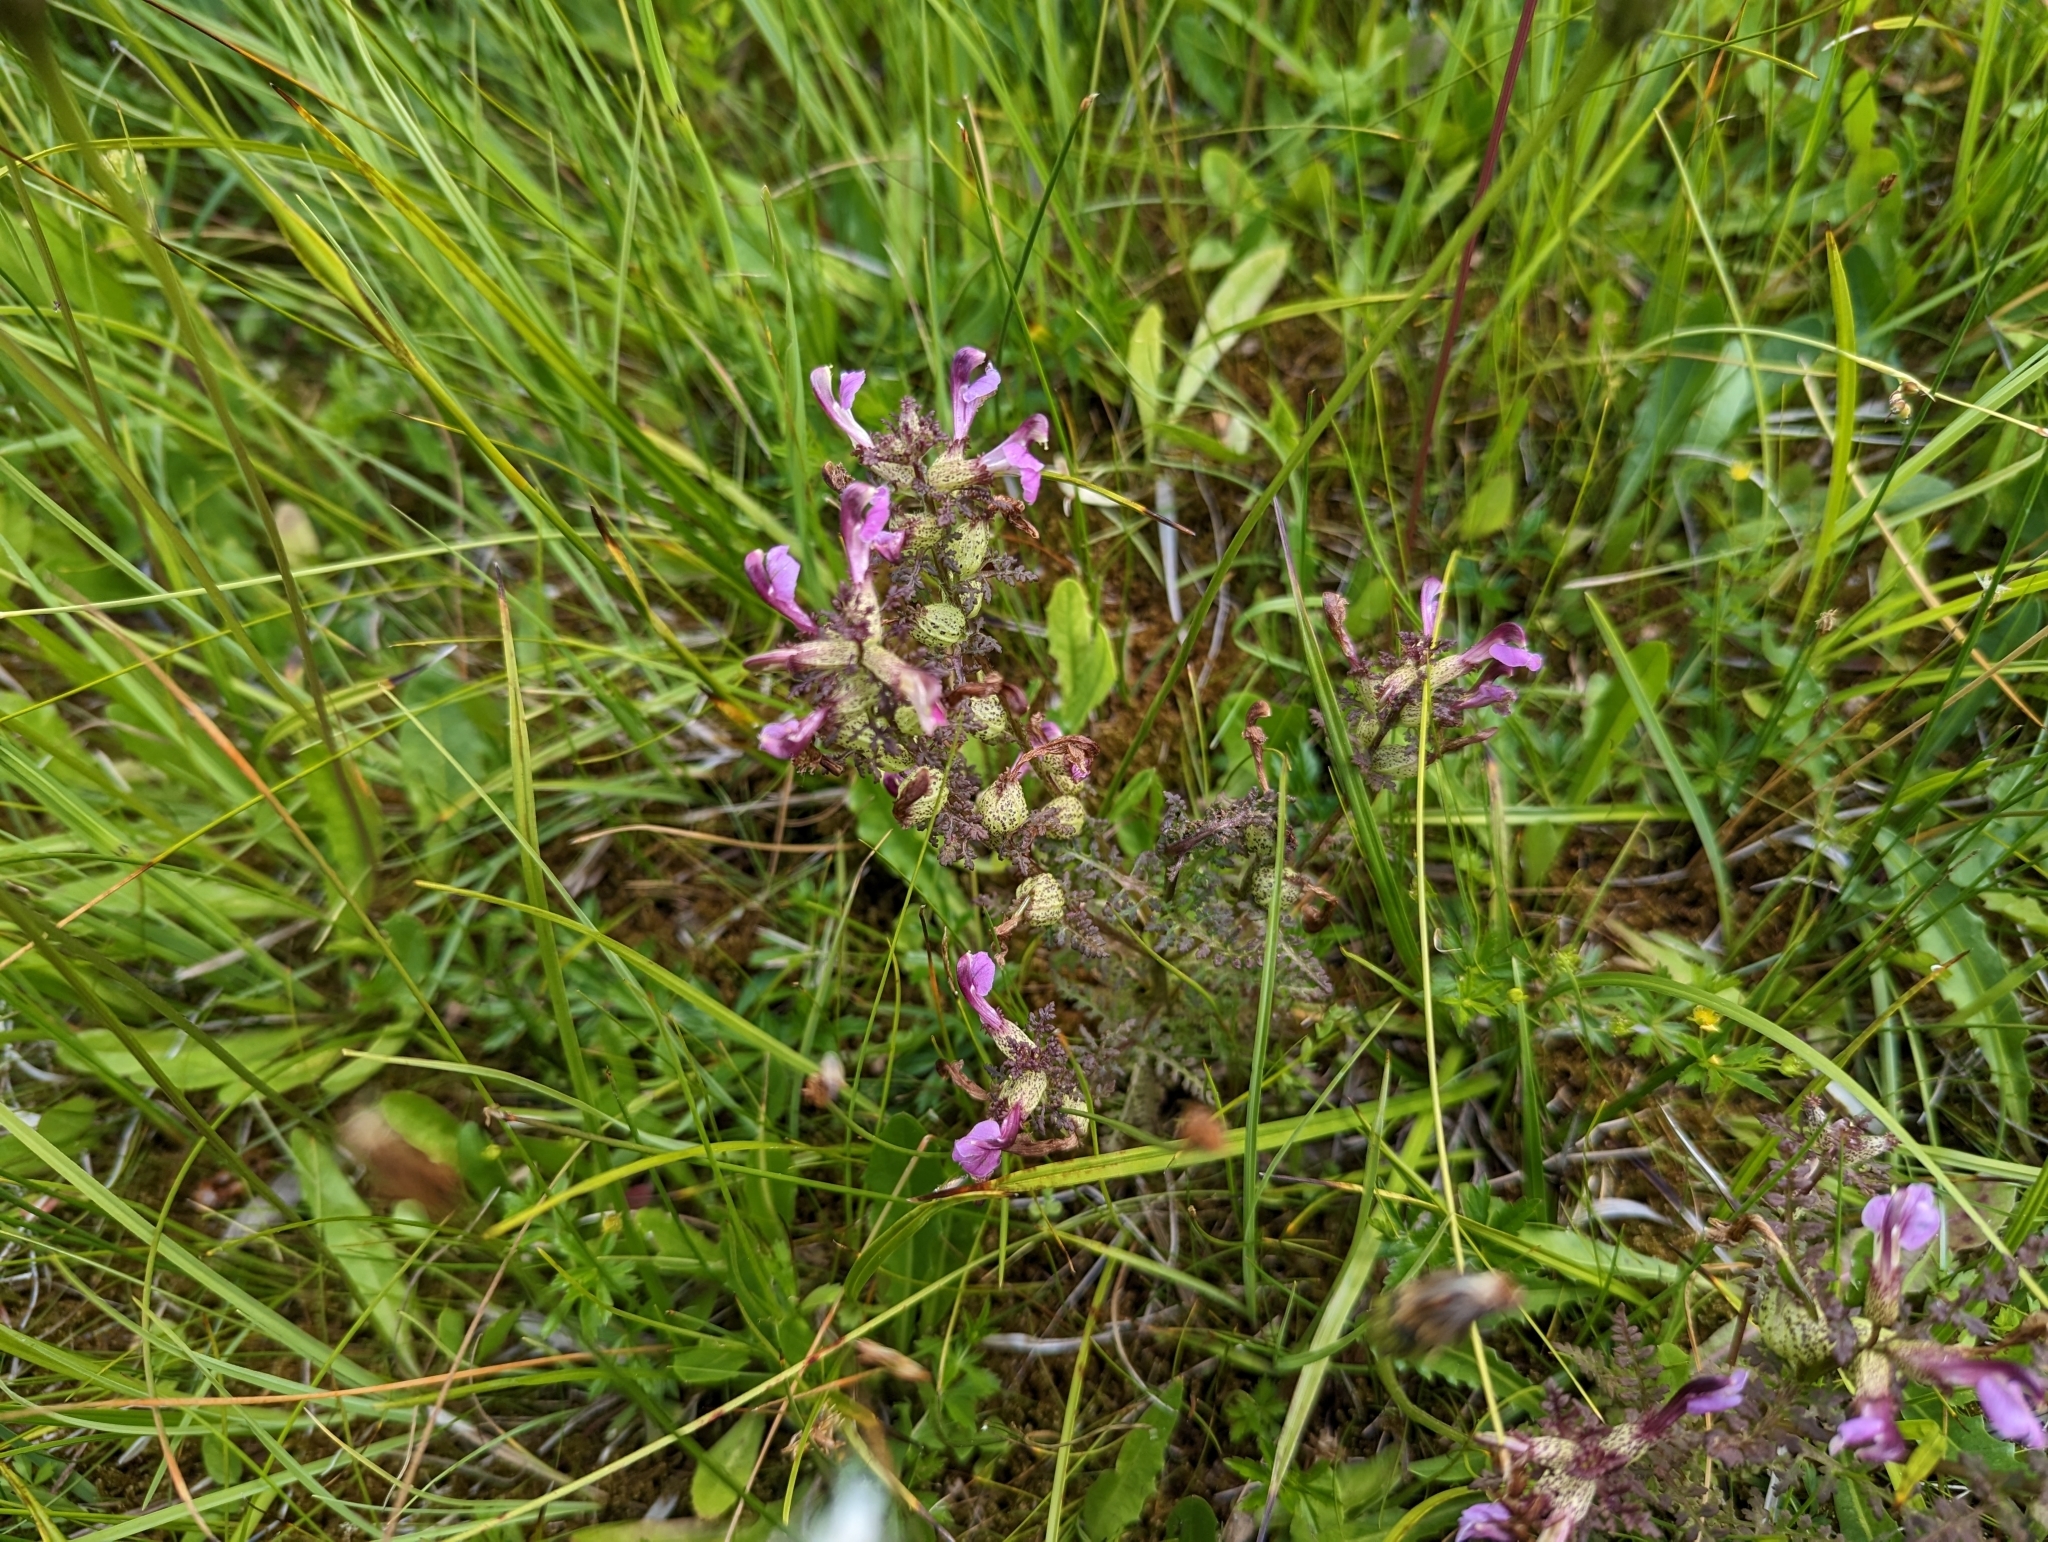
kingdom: Plantae
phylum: Tracheophyta
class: Magnoliopsida
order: Lamiales
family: Orobanchaceae
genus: Pedicularis
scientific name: Pedicularis palustris
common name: Marsh lousewort
